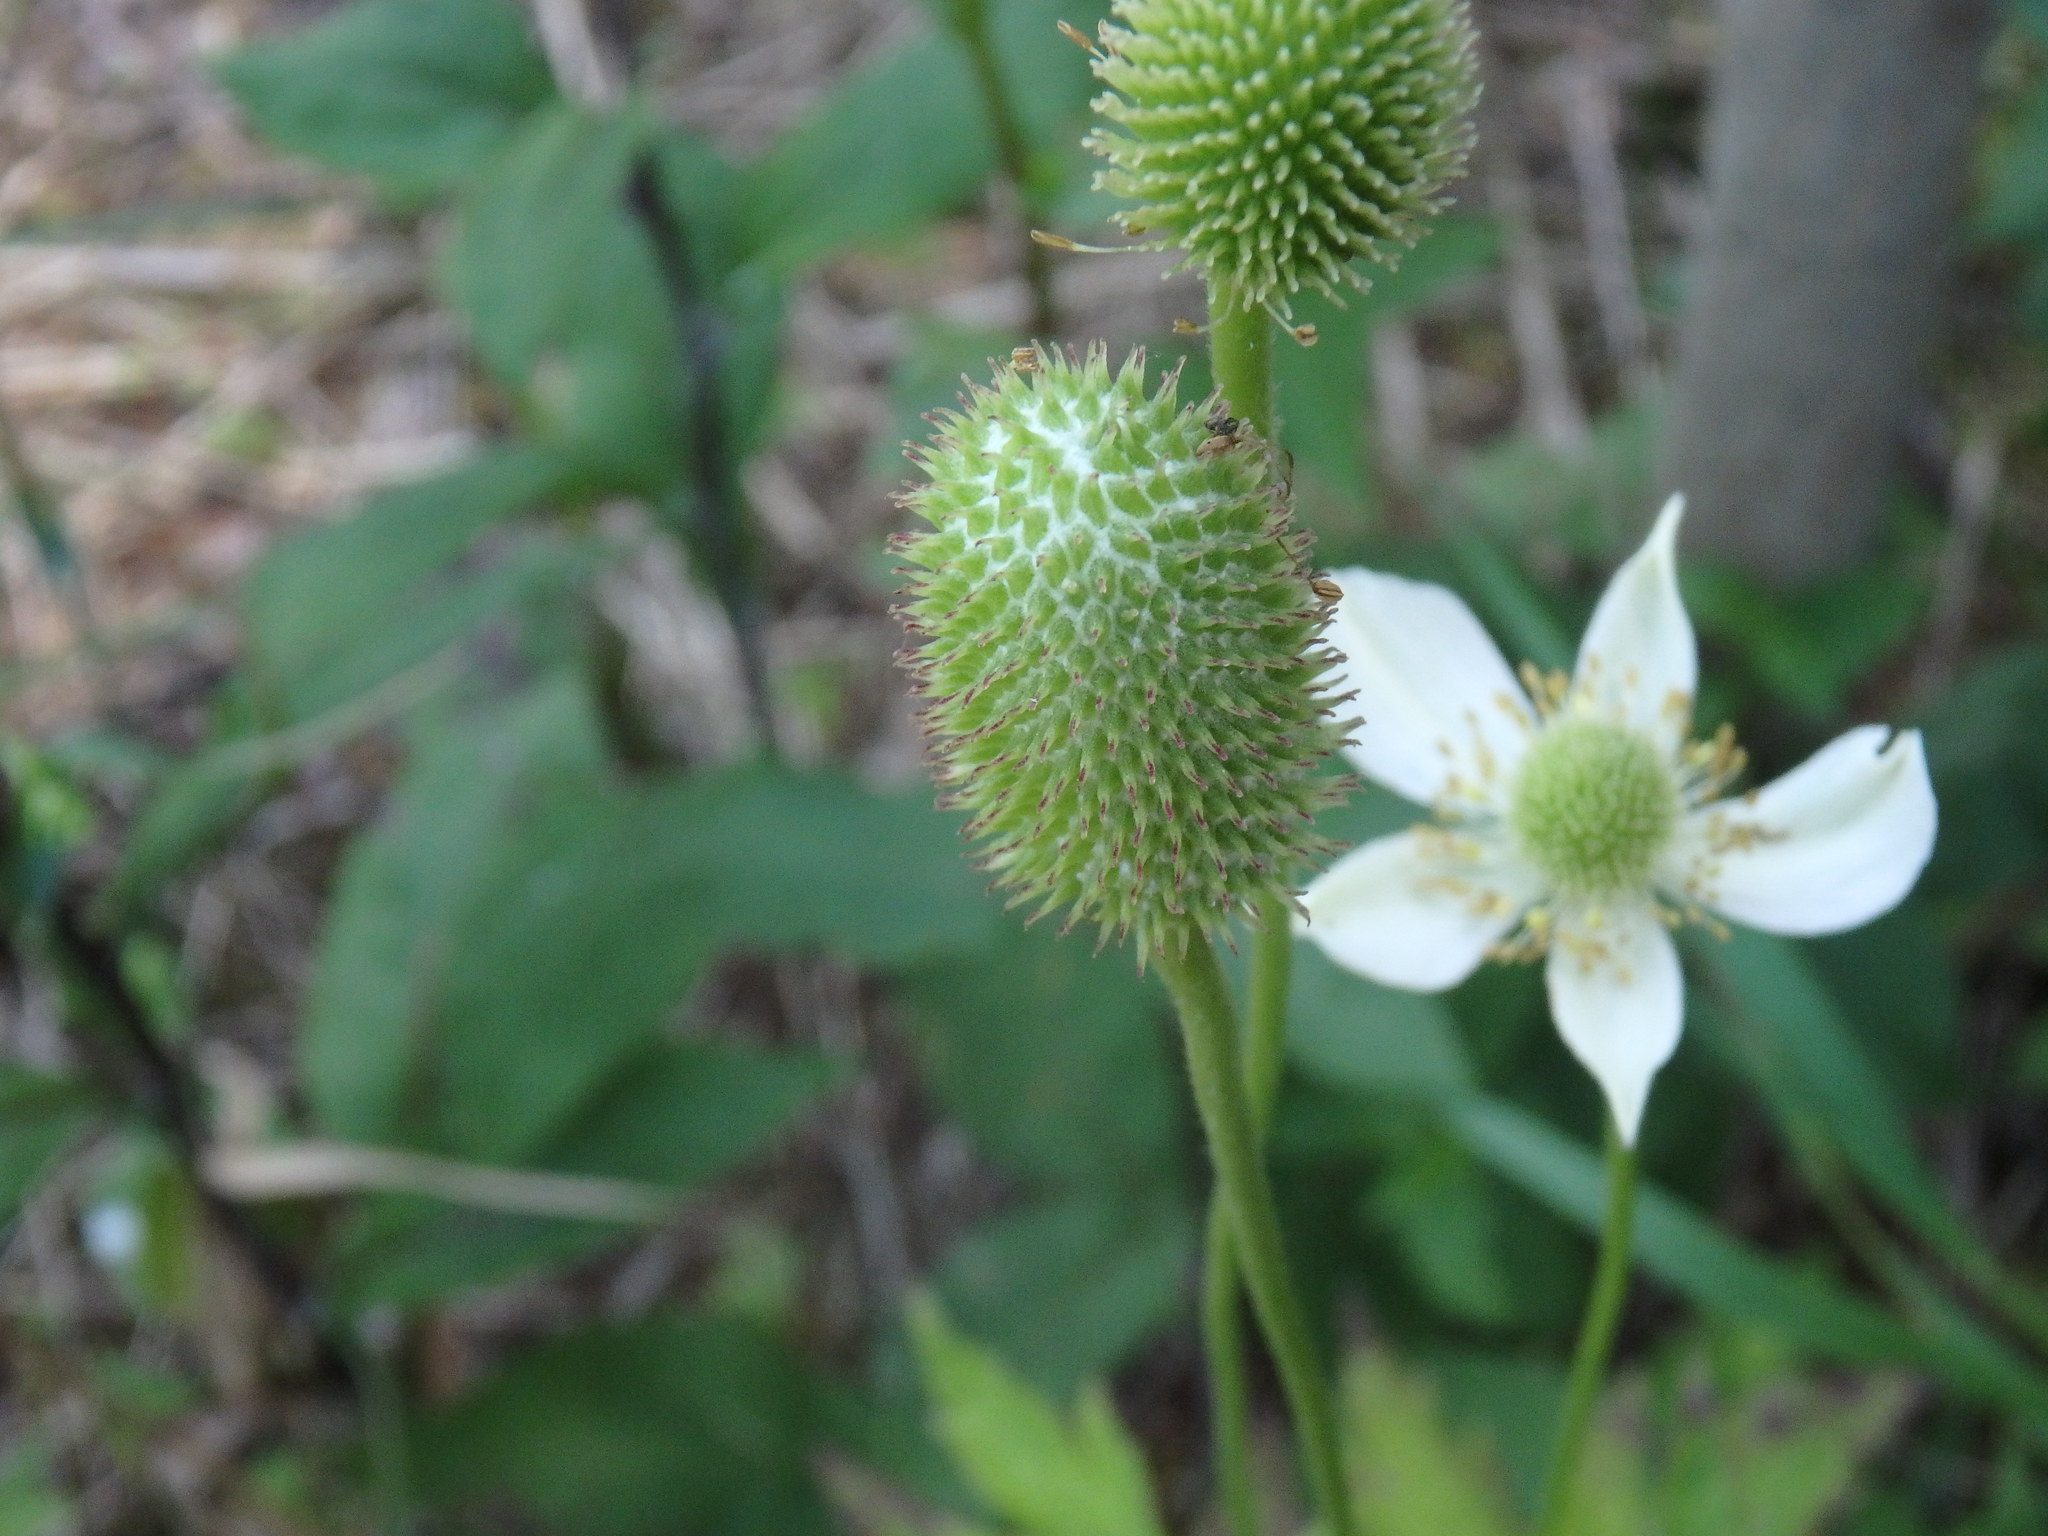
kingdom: Plantae
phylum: Tracheophyta
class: Magnoliopsida
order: Ranunculales
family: Ranunculaceae
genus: Anemone
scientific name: Anemone virginiana
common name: Tall anemone
